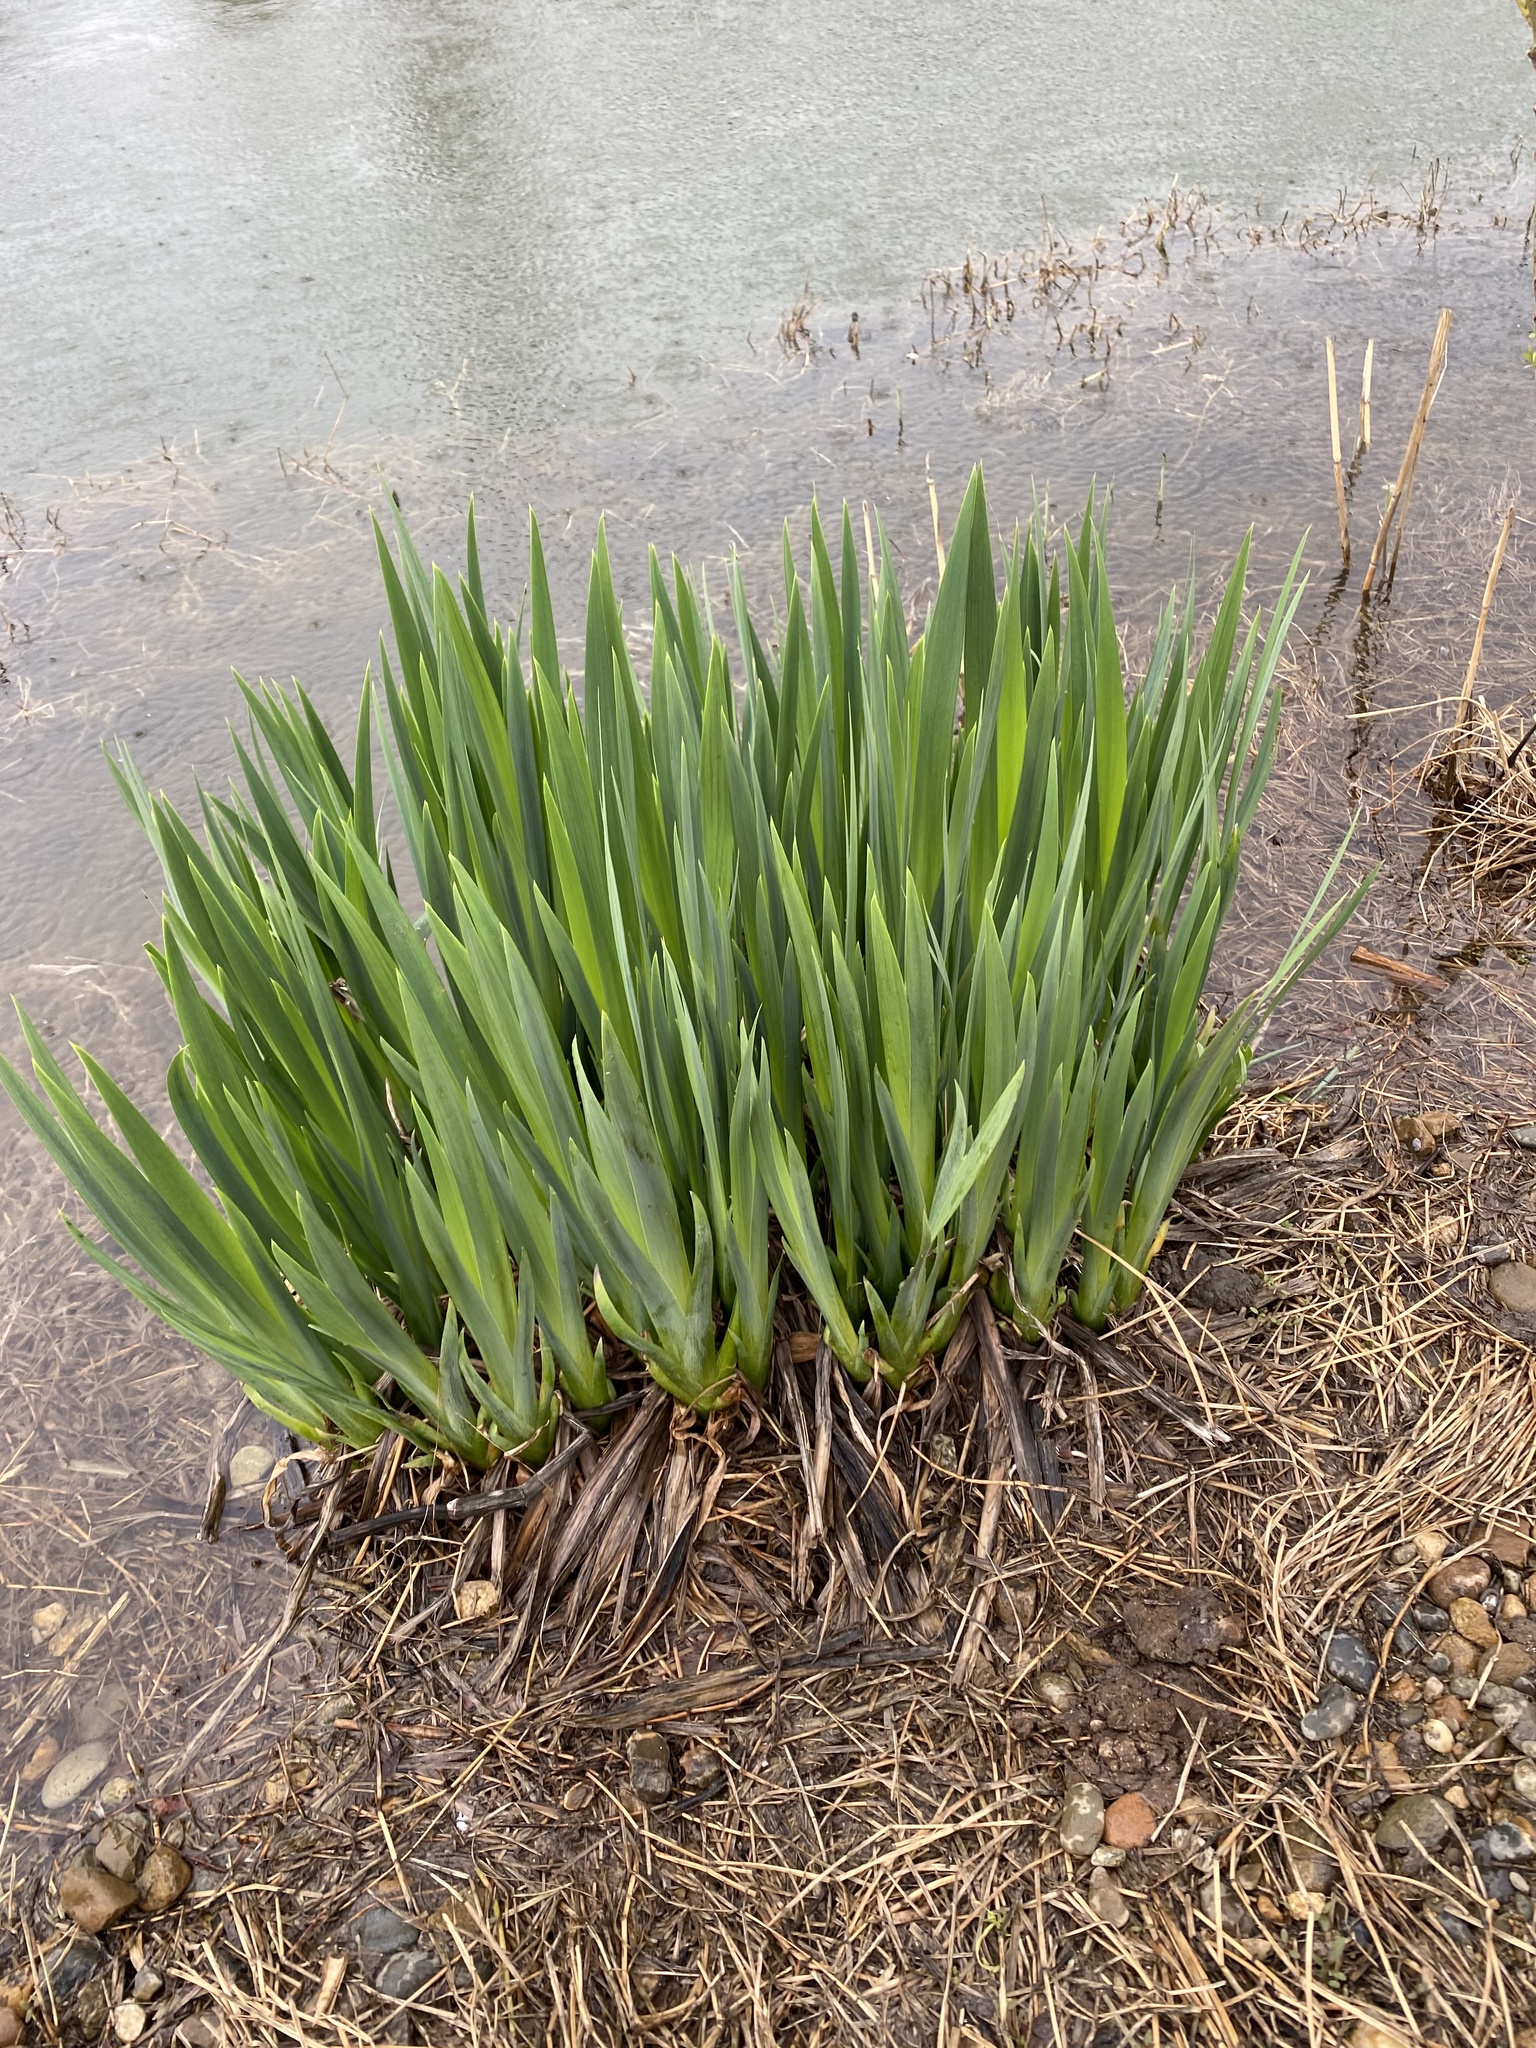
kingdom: Plantae
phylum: Tracheophyta
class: Liliopsida
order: Asparagales
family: Iridaceae
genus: Iris
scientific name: Iris pseudacorus
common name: Yellow flag
